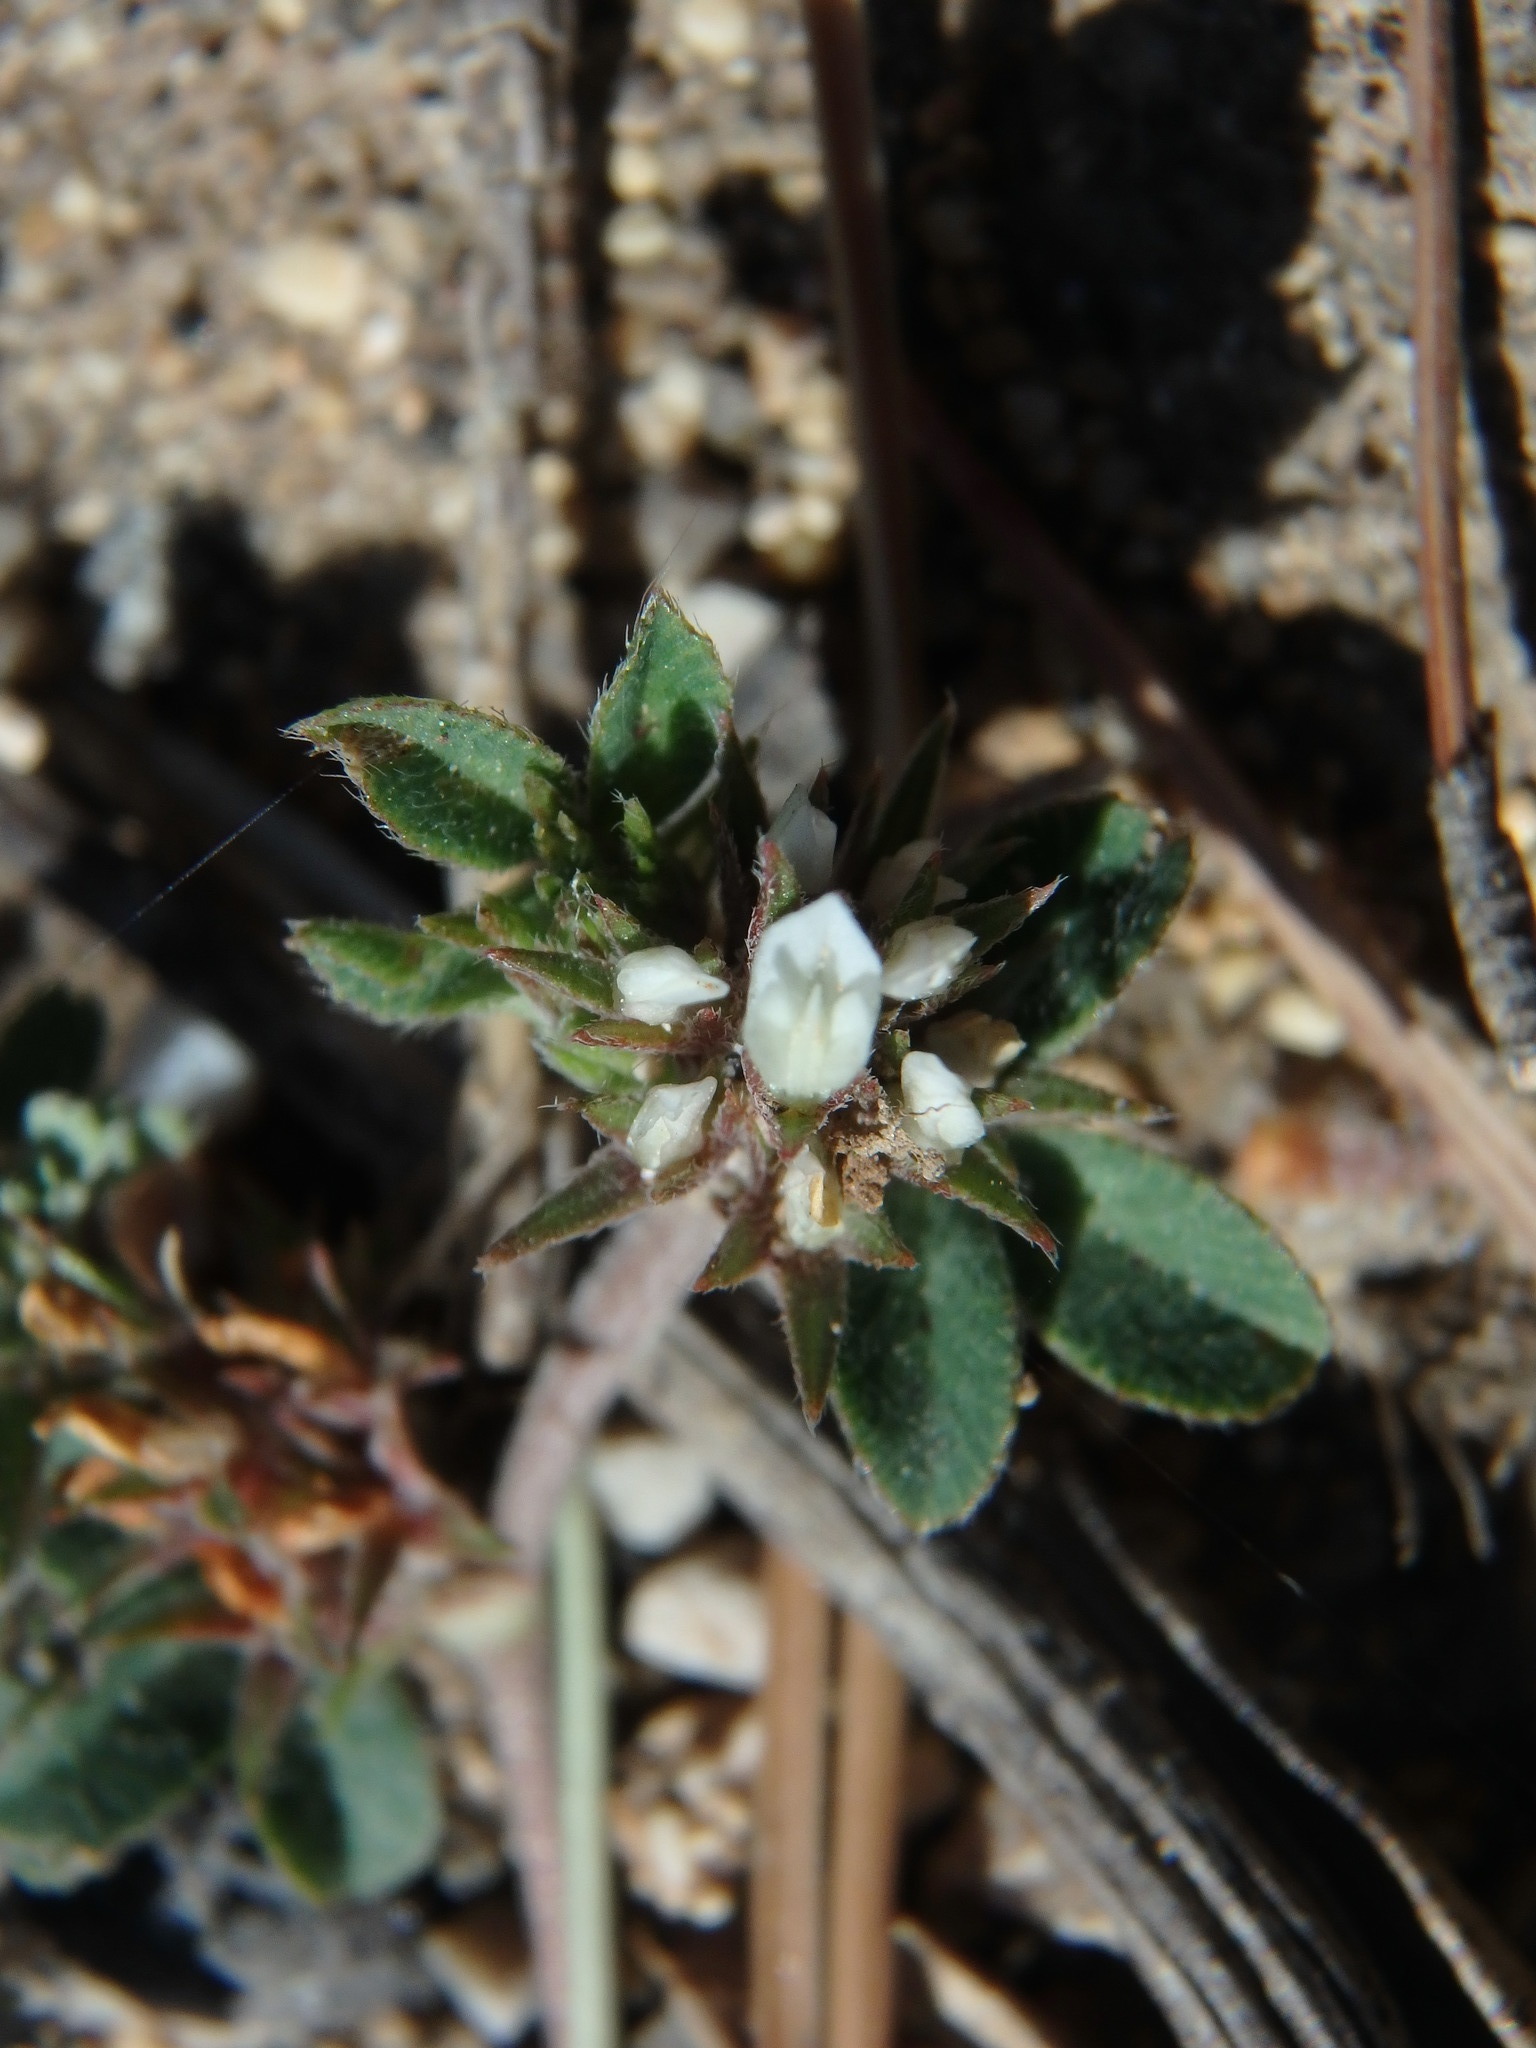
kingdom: Plantae
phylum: Tracheophyta
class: Magnoliopsida
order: Fabales
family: Fabaceae
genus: Trifolium
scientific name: Trifolium scabrum
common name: Rough clover
